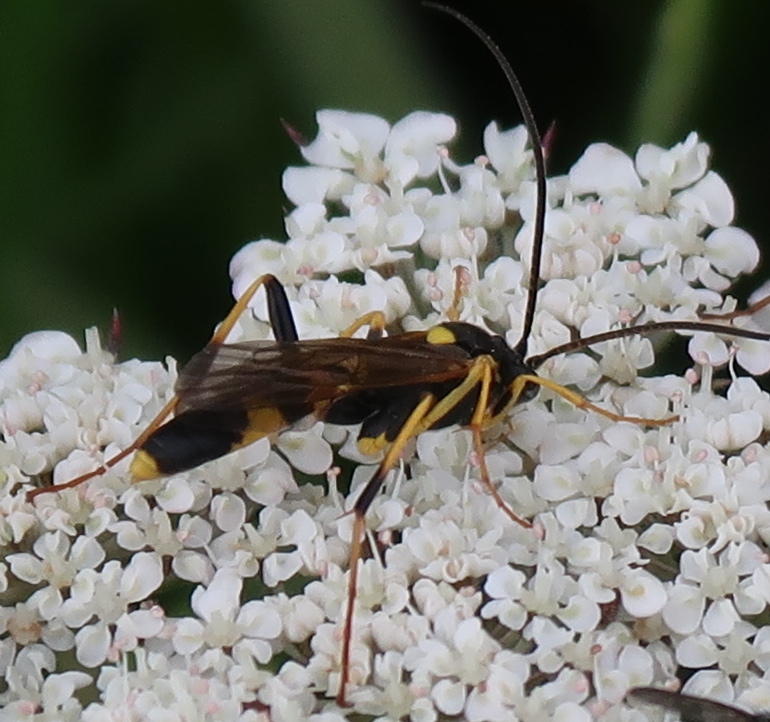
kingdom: Animalia
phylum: Arthropoda
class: Insecta
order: Hymenoptera
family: Ichneumonidae
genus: Amblyteles
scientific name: Amblyteles armatorius
